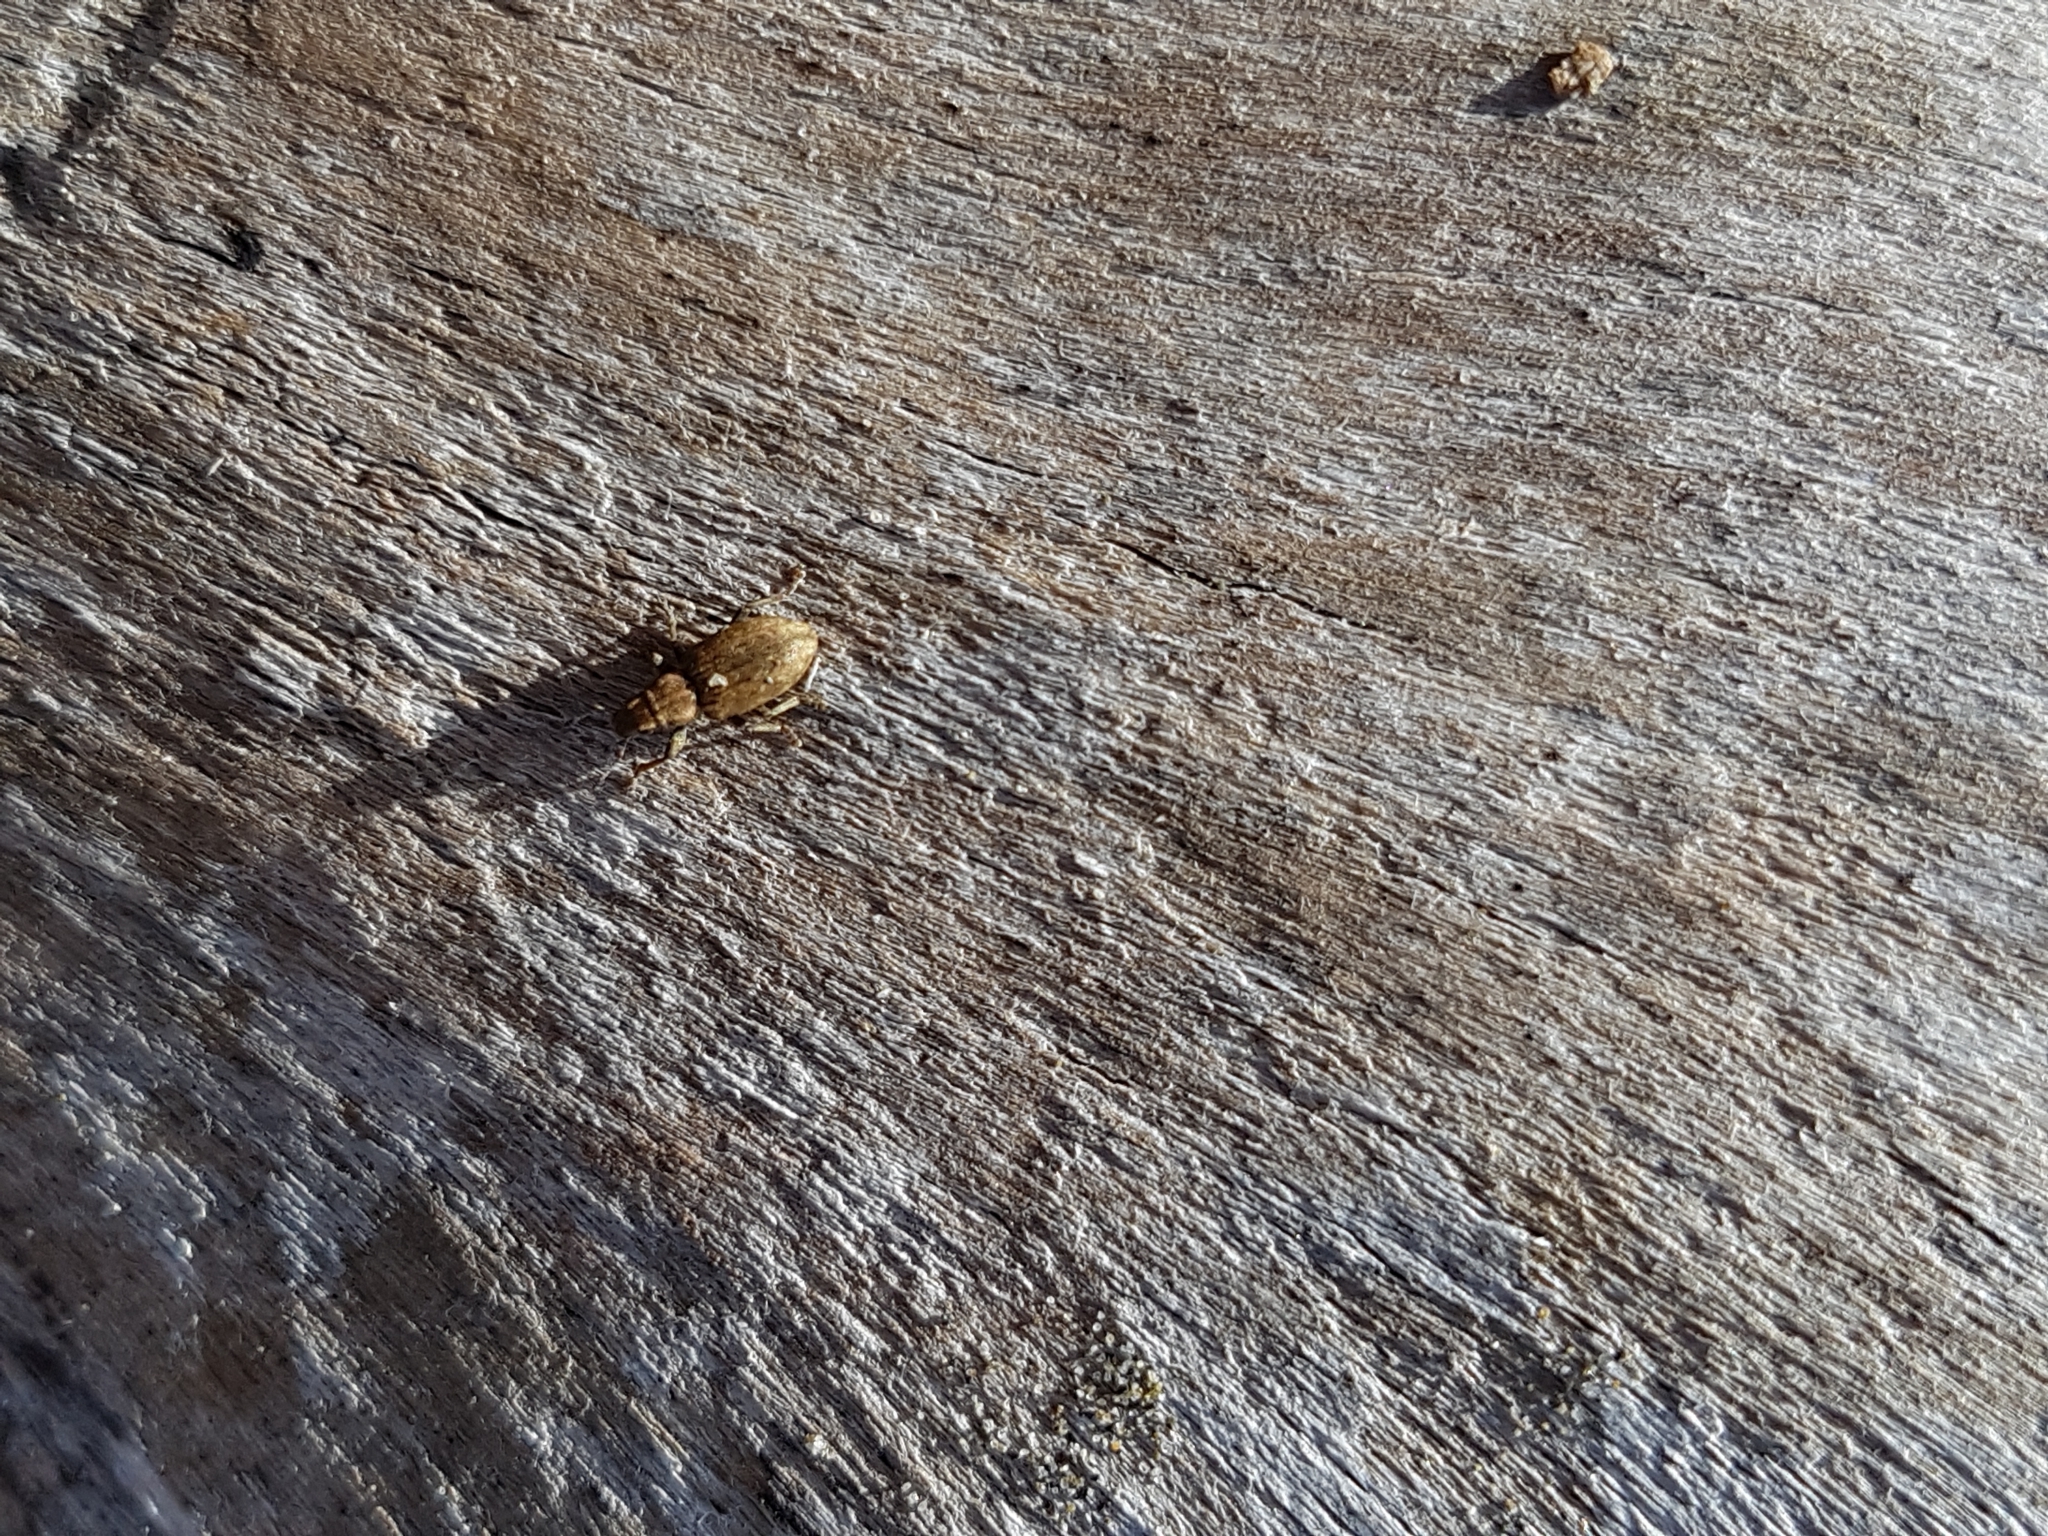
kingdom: Animalia
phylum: Arthropoda
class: Insecta
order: Coleoptera
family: Curculionidae
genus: Sitona
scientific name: Sitona obsoletus
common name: Weevil
